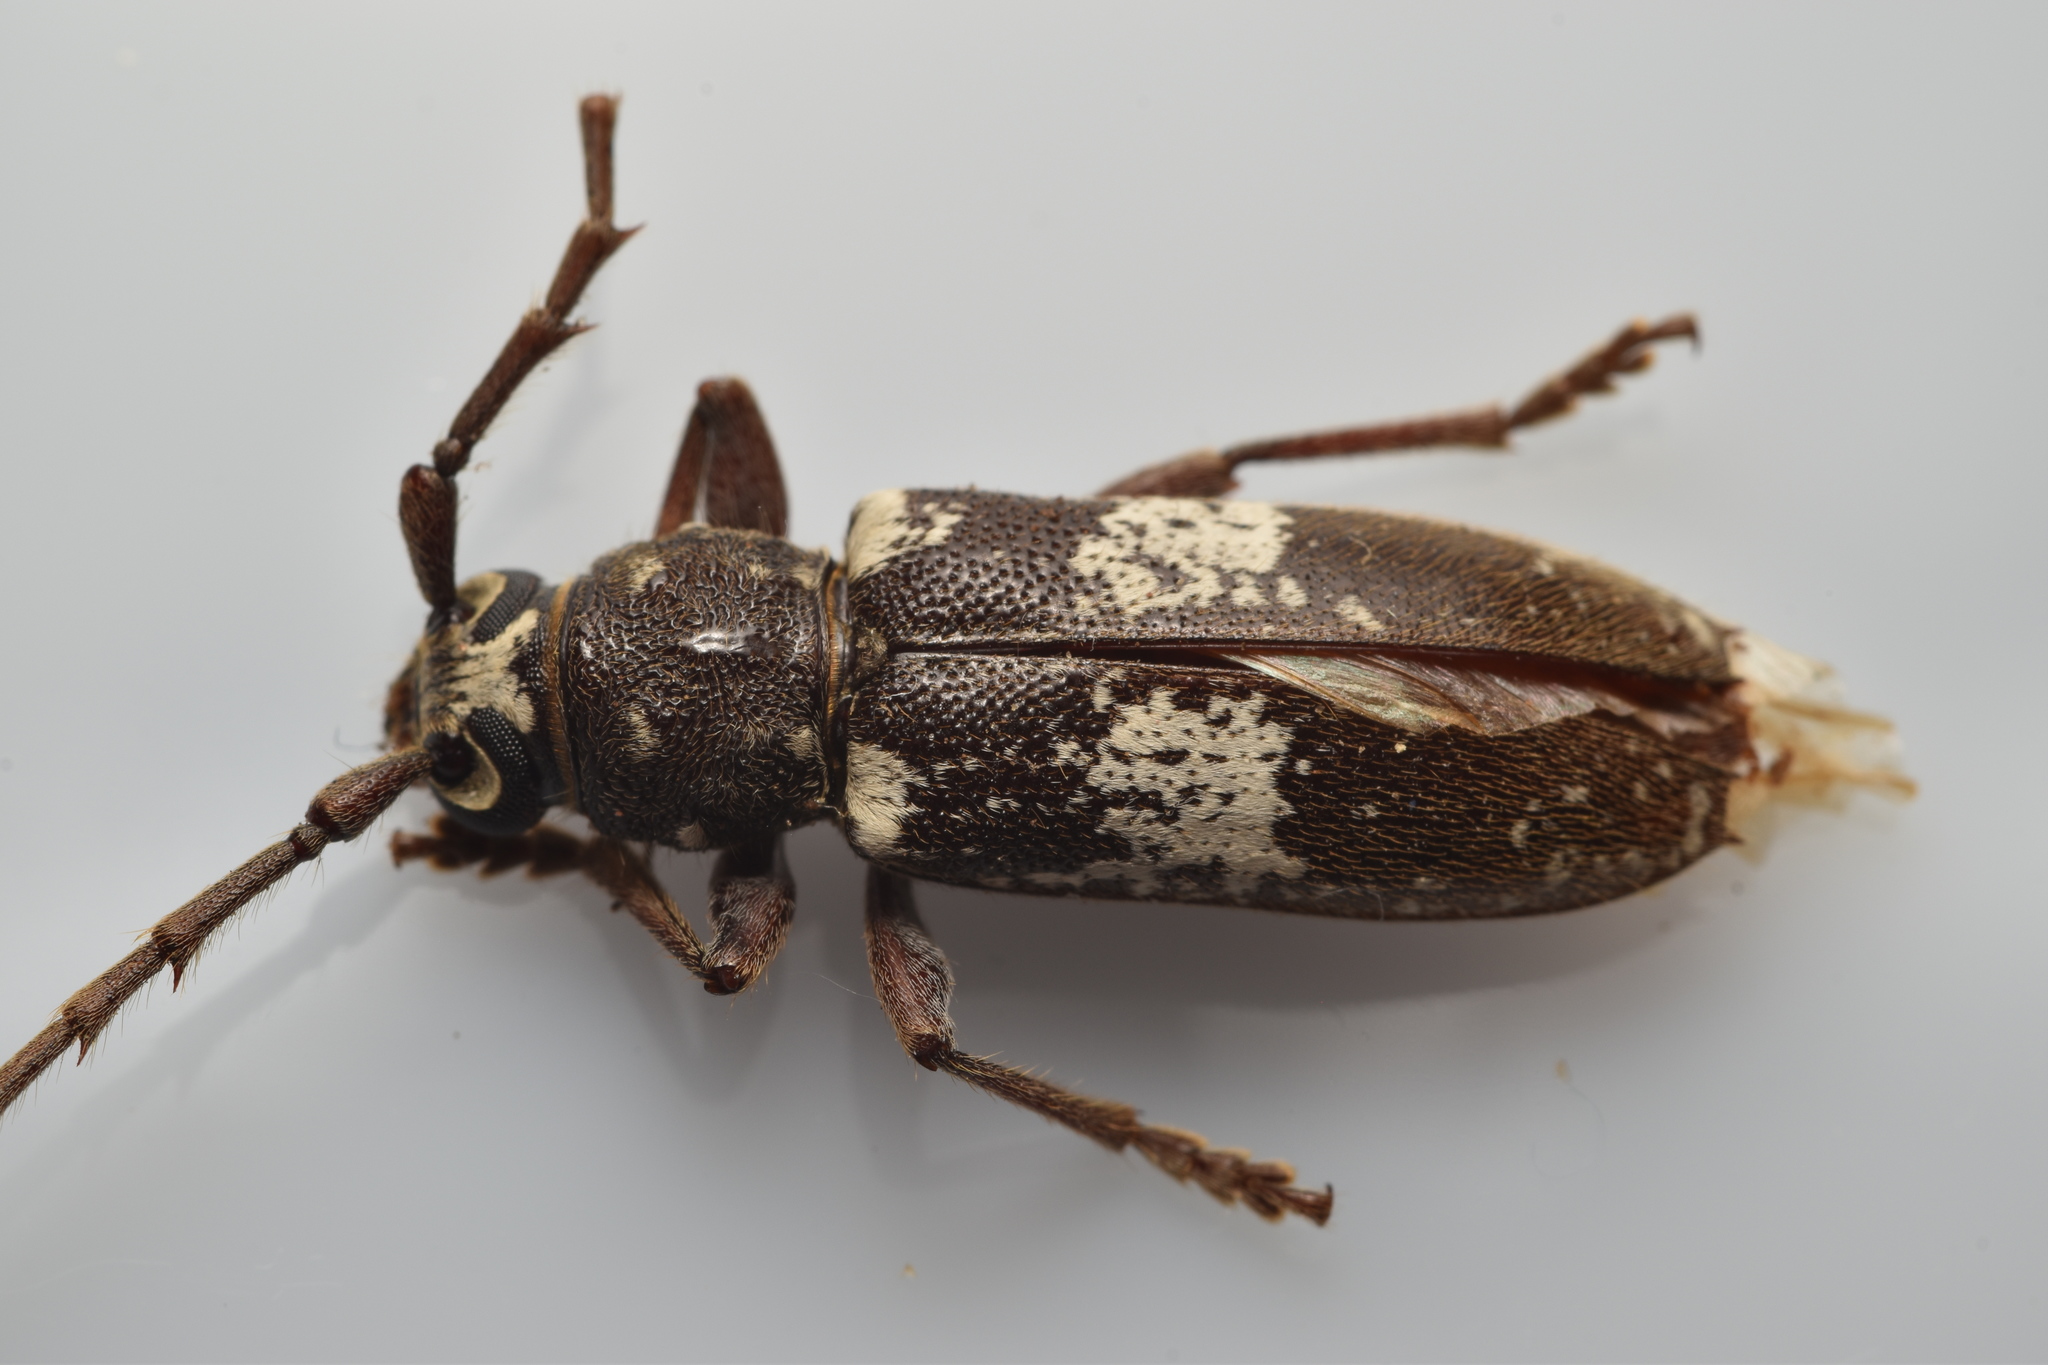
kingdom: Animalia
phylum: Arthropoda
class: Insecta
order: Coleoptera
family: Cerambycidae
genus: Enaphalodes
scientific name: Enaphalodes taeniatus
